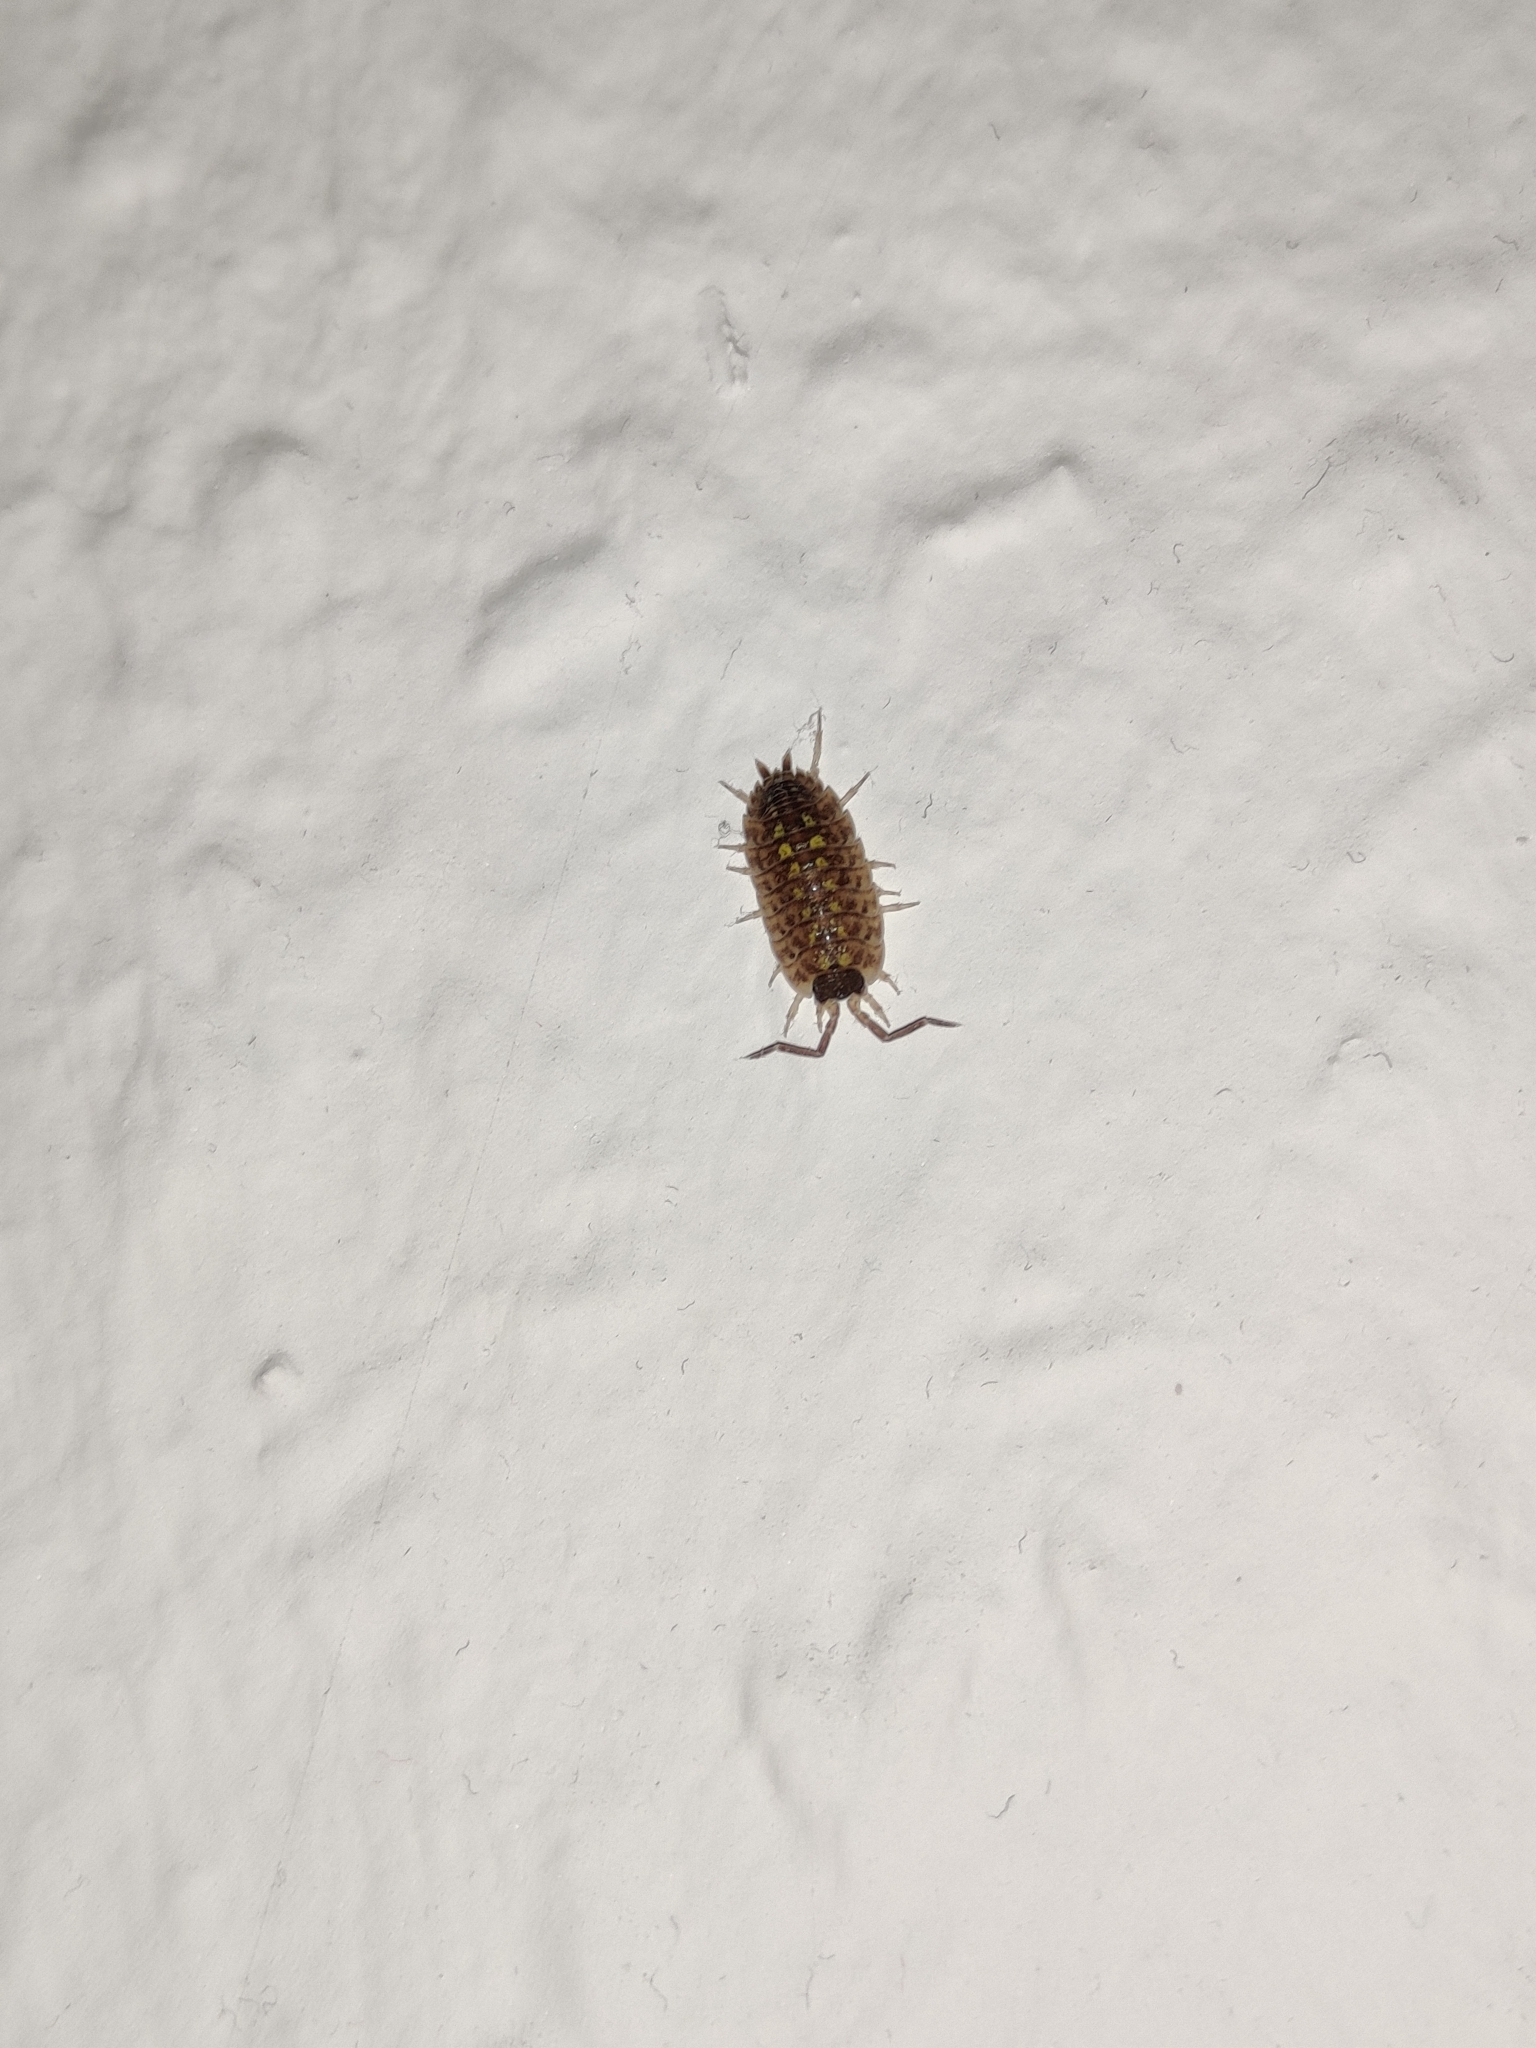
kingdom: Animalia
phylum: Arthropoda
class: Malacostraca
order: Isopoda
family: Porcellionidae
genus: Porcellio
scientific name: Porcellio spinicornis
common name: Painted woodlouse
